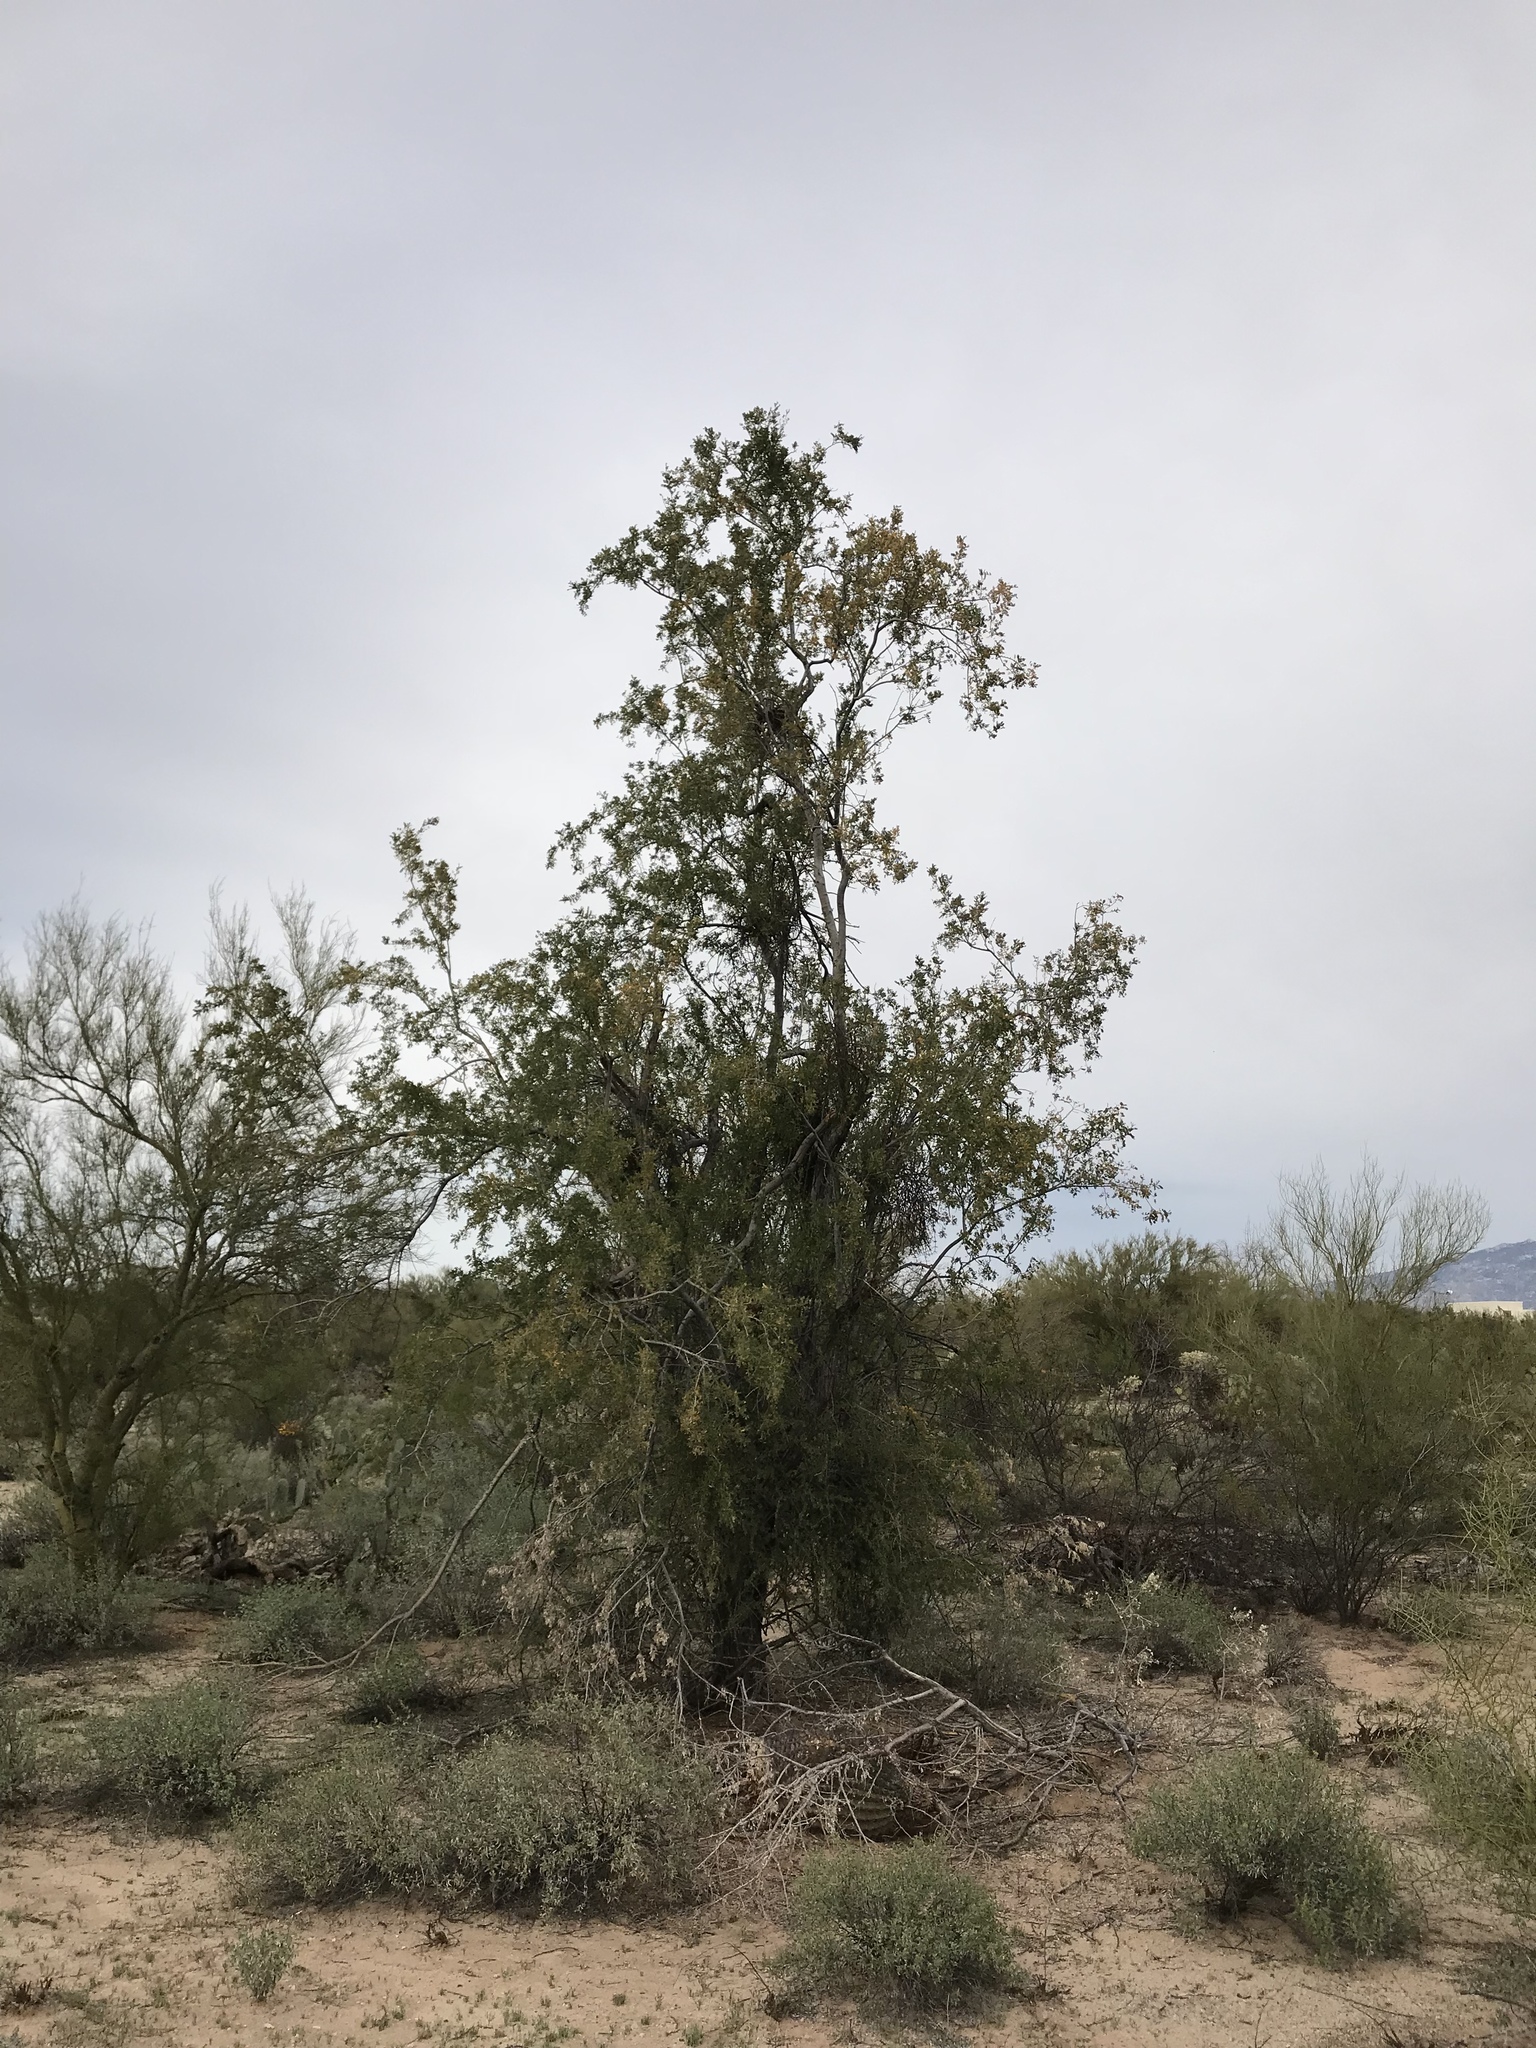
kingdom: Plantae
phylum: Tracheophyta
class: Magnoliopsida
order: Fabales
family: Fabaceae
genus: Olneya
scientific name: Olneya tesota
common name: Desert ironwood
